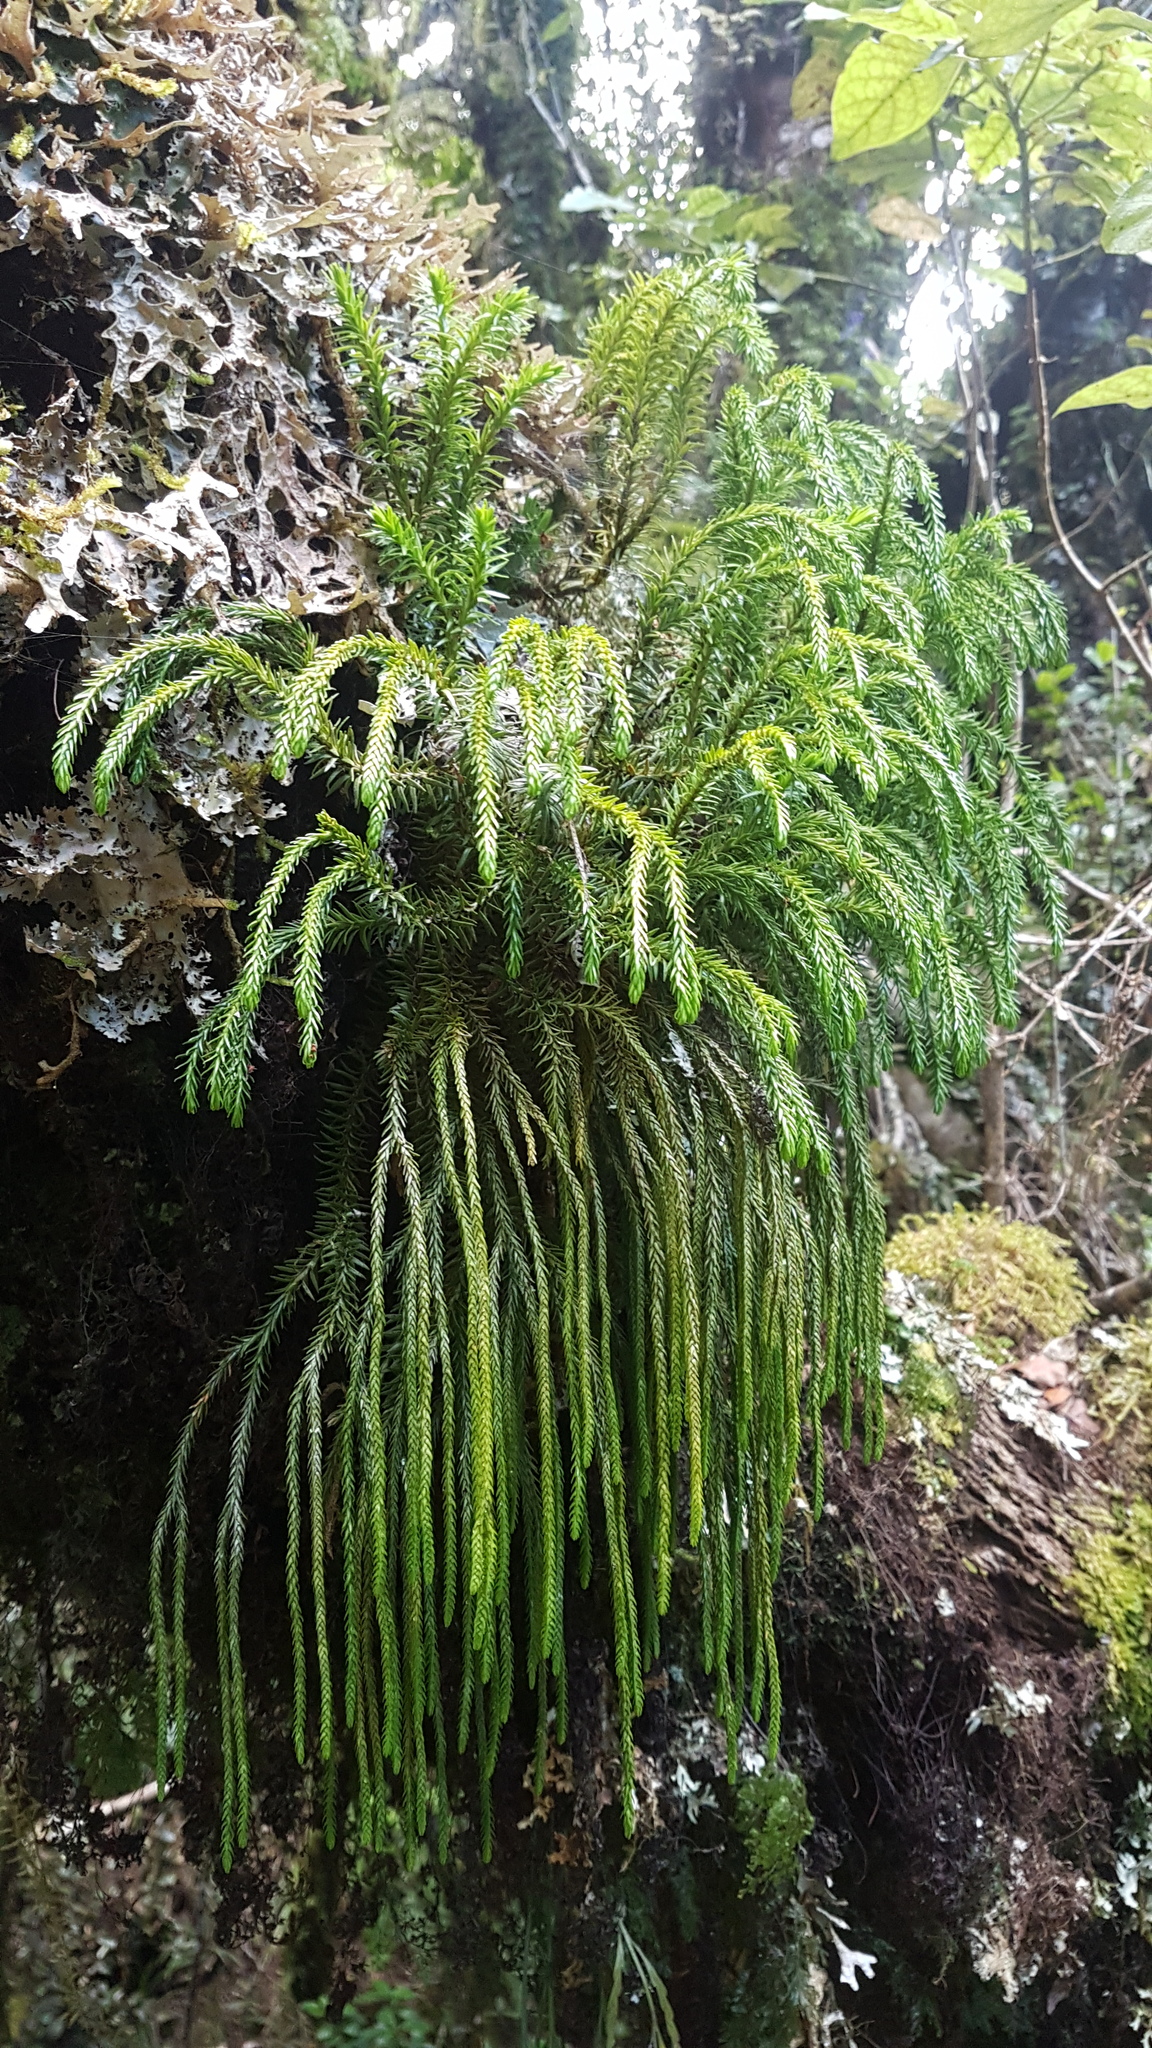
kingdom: Plantae
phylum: Tracheophyta
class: Lycopodiopsida
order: Lycopodiales
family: Lycopodiaceae
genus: Phlegmariurus
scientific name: Phlegmariurus varius
